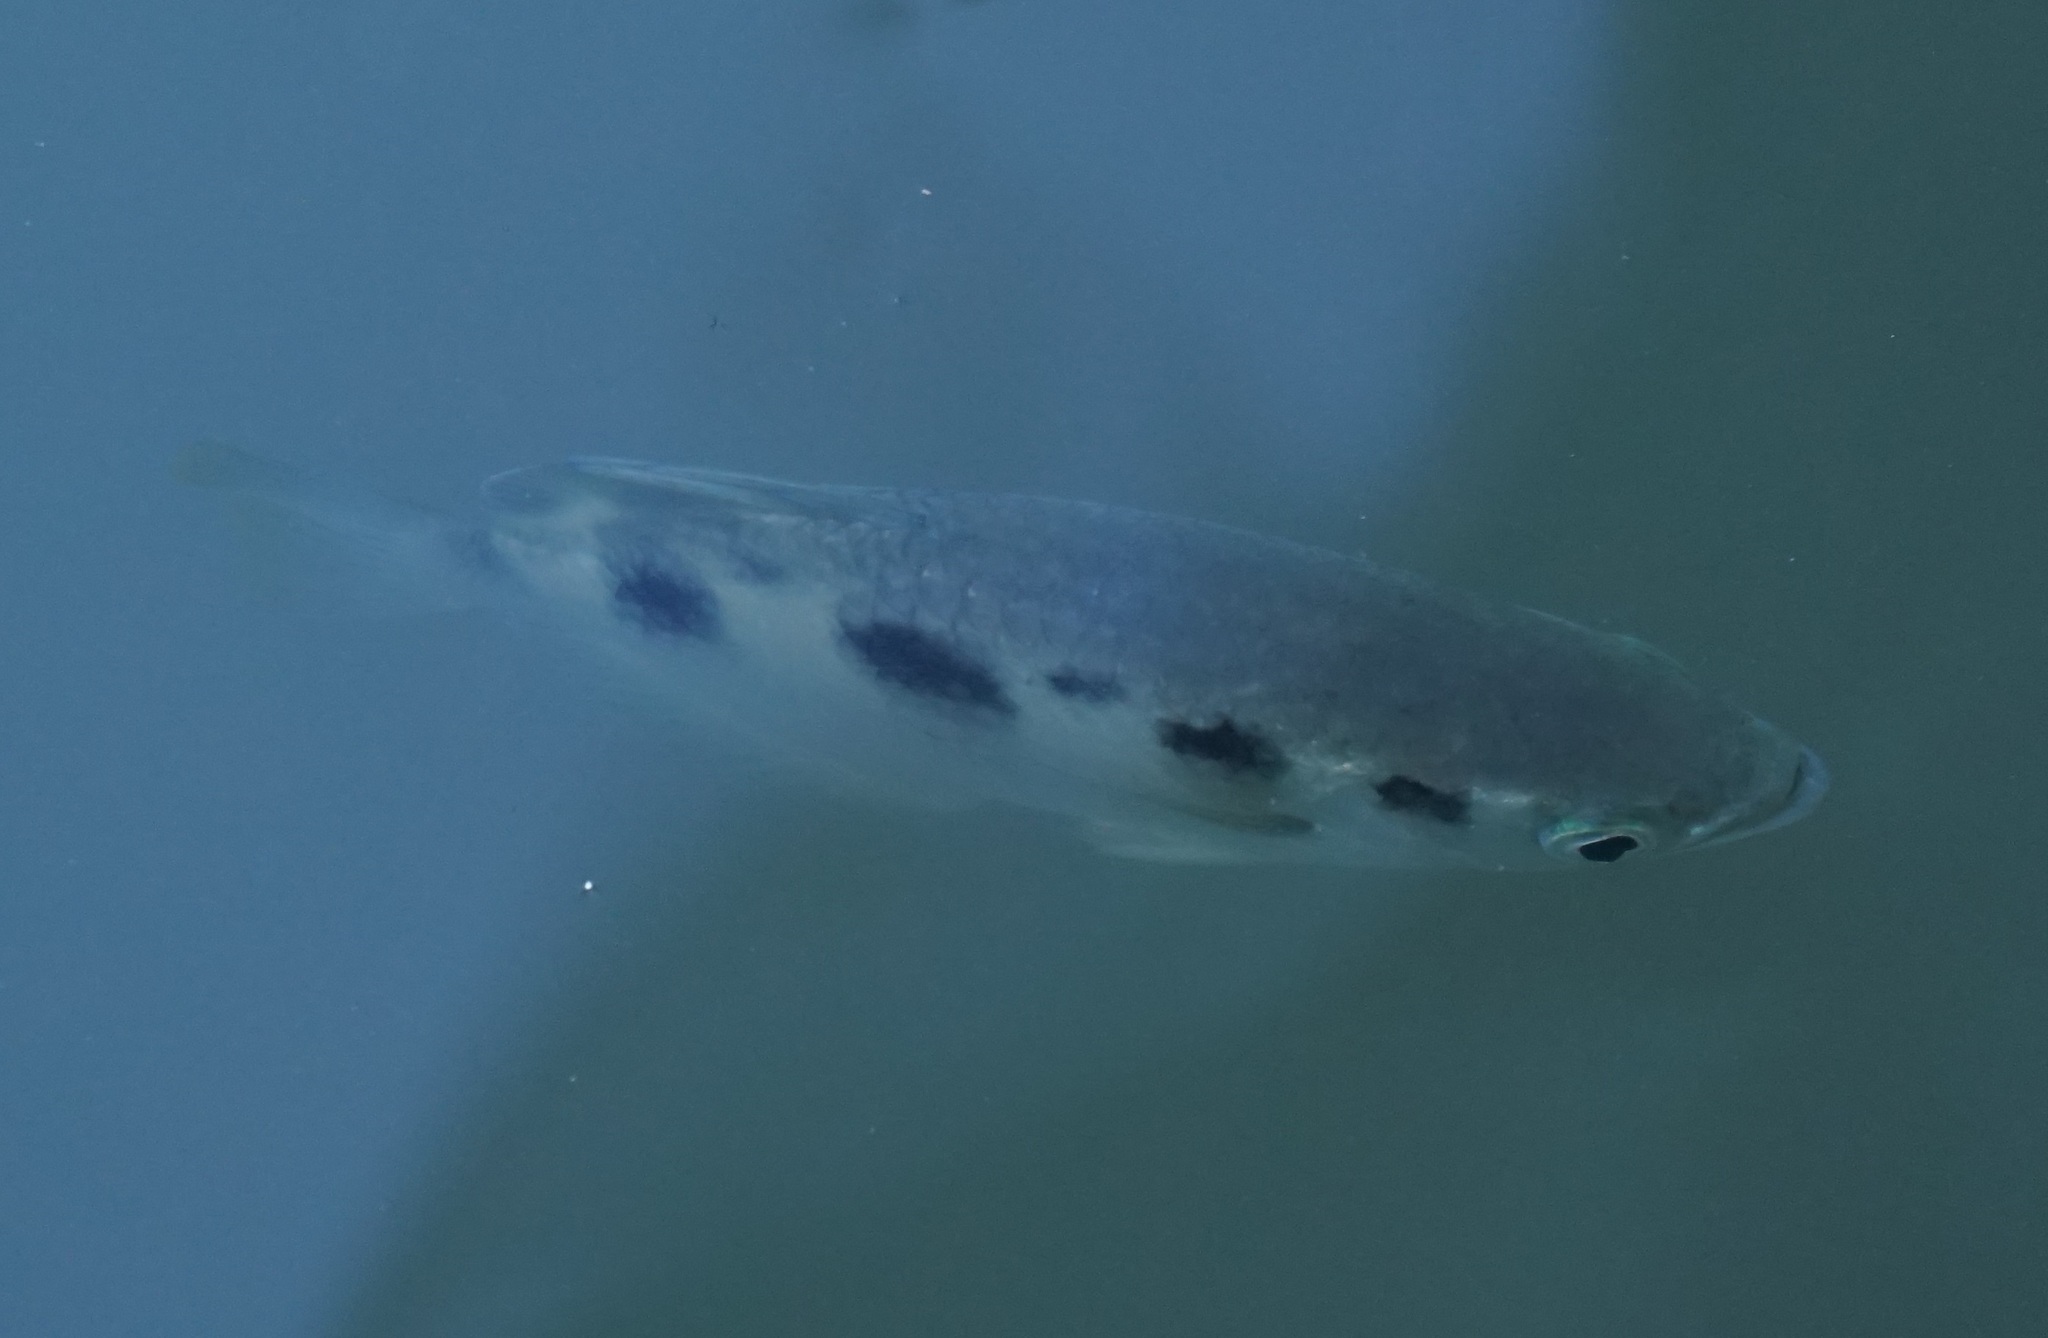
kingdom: Animalia
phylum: Chordata
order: Perciformes
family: Toxotidae
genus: Toxotes
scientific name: Toxotes chatareus
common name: Spotted archerfish
